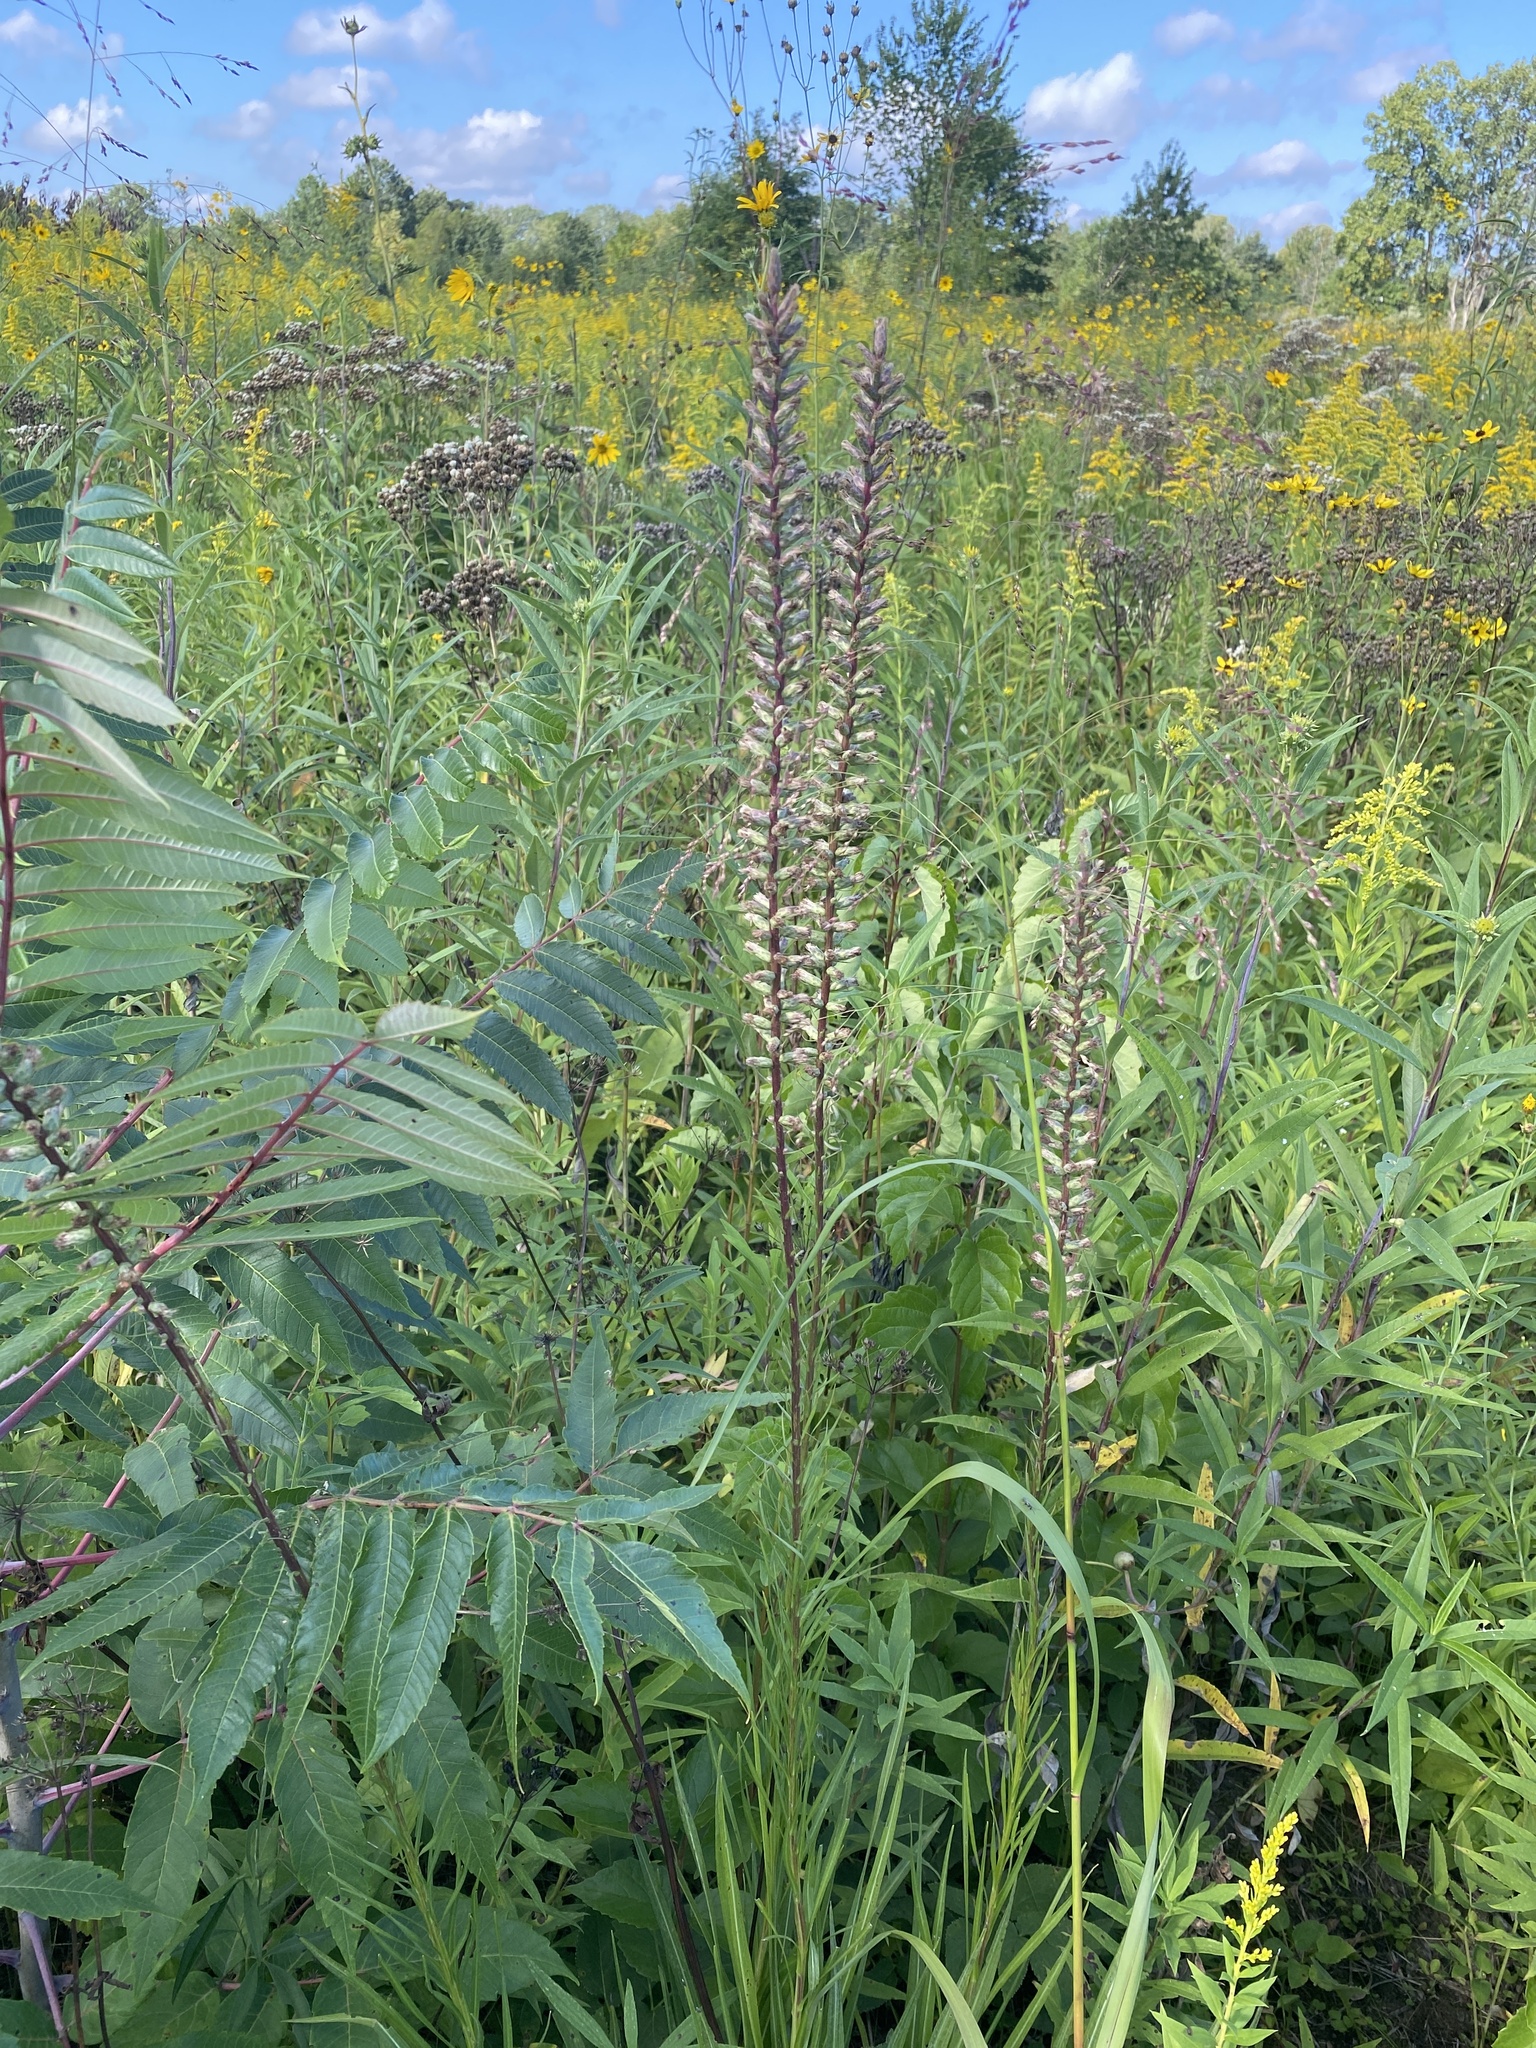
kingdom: Plantae
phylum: Tracheophyta
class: Magnoliopsida
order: Asterales
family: Asteraceae
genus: Liatris
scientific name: Liatris spicata
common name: Florist gayfeather
